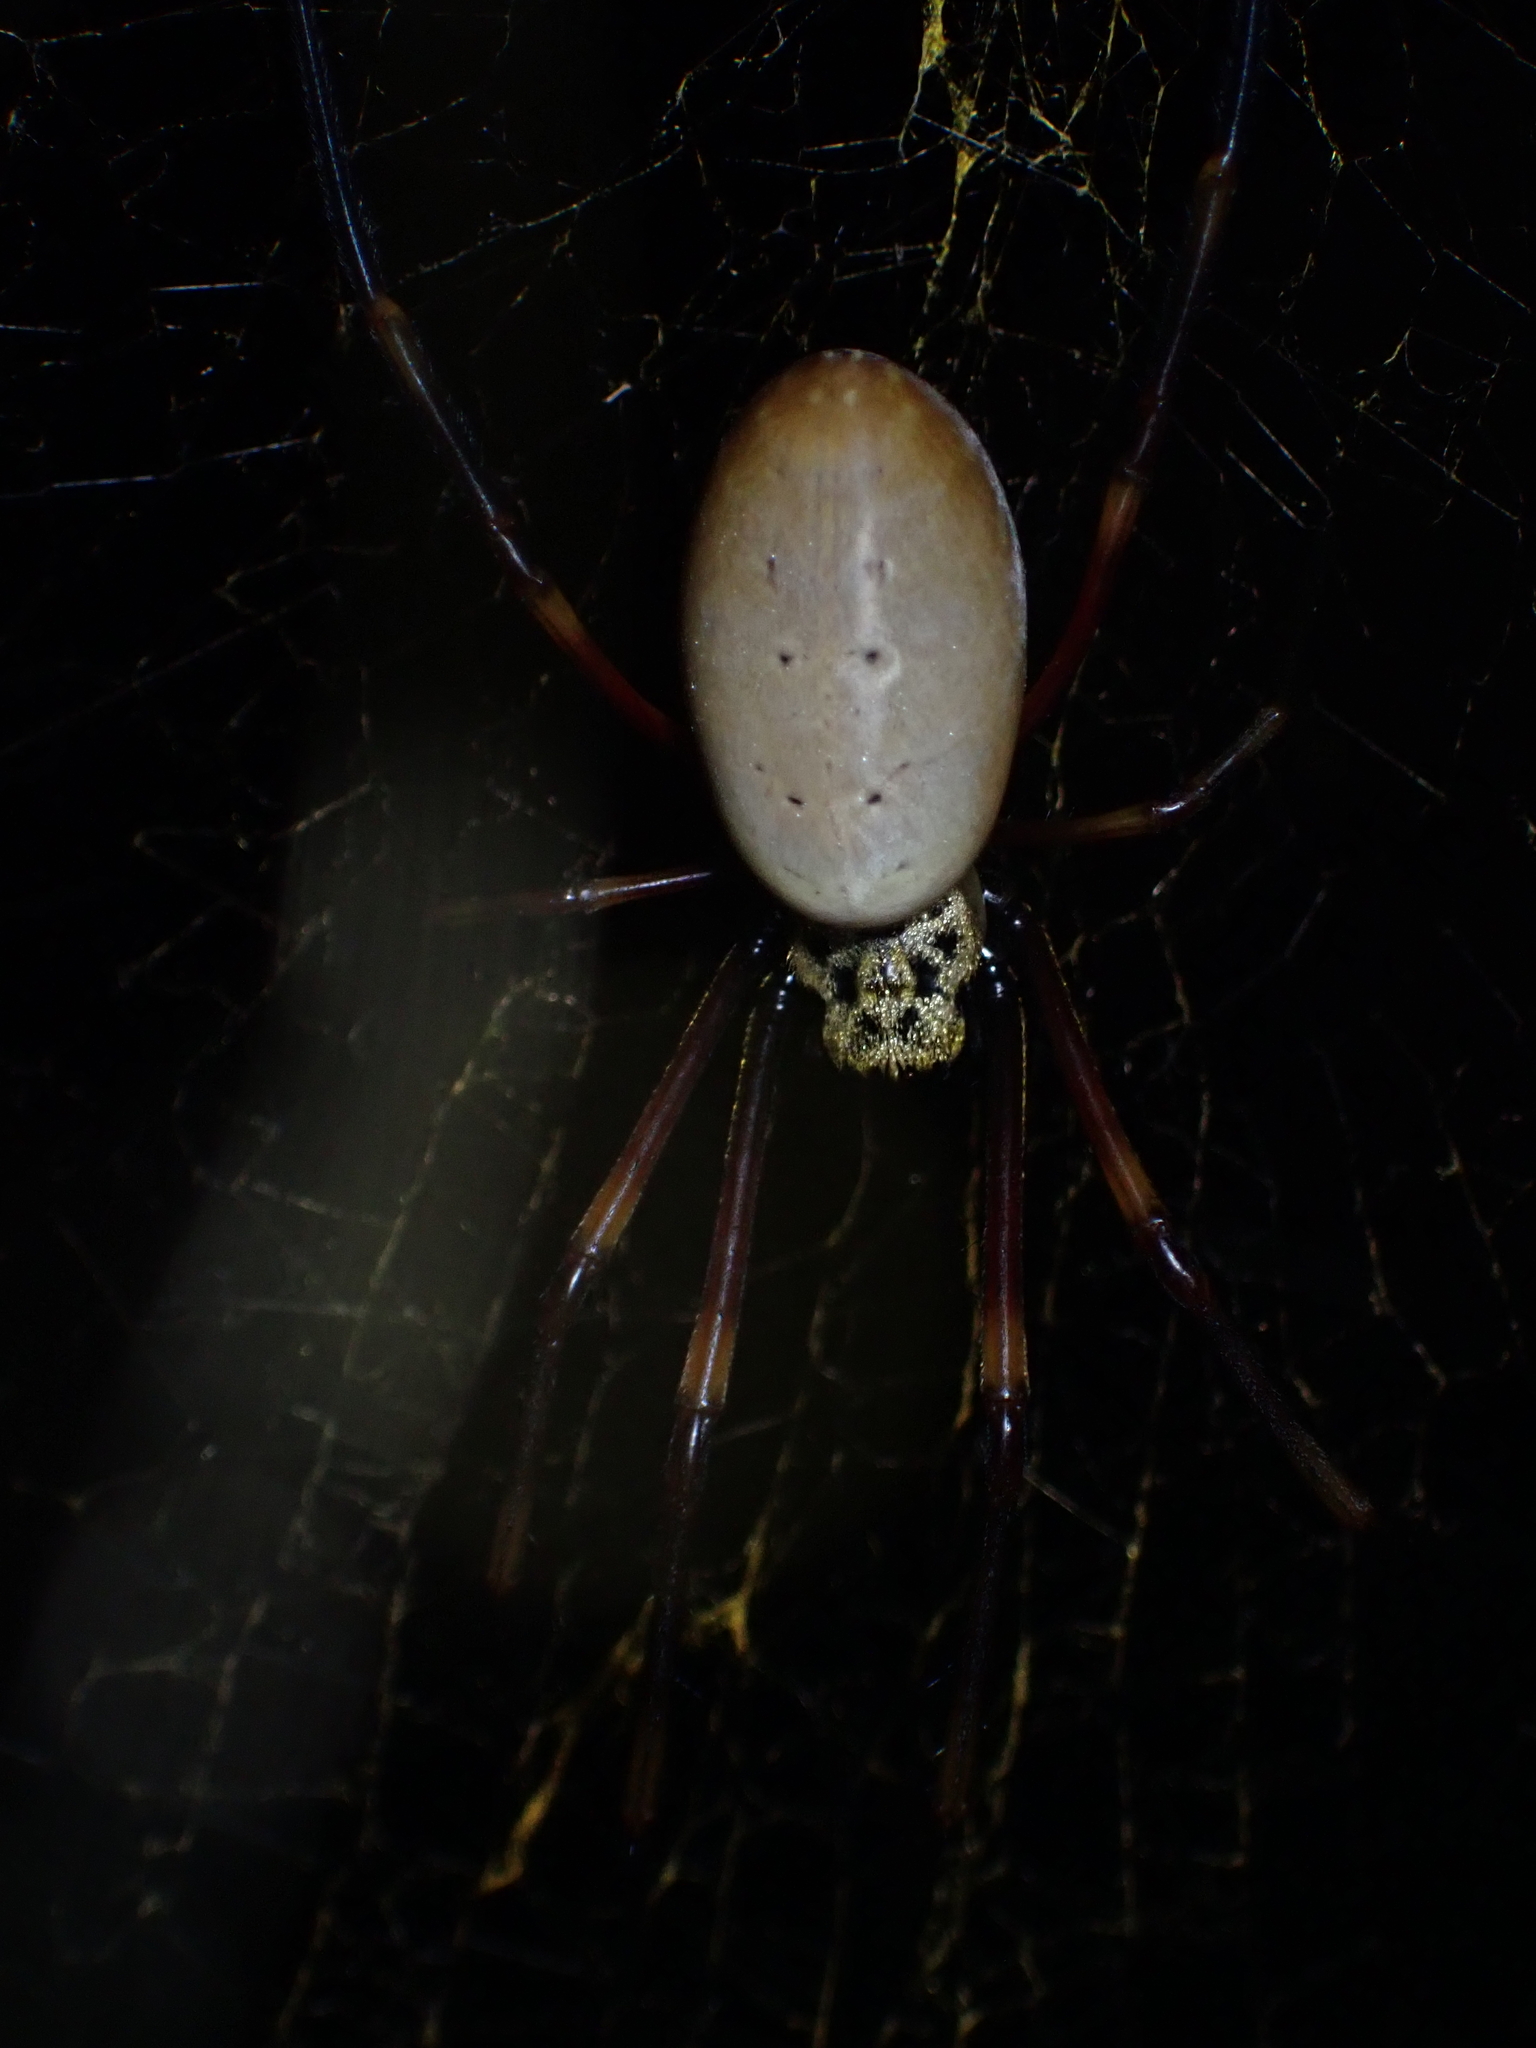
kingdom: Animalia
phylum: Arthropoda
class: Arachnida
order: Araneae
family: Araneidae
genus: Trichonephila
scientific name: Trichonephila plumipes
